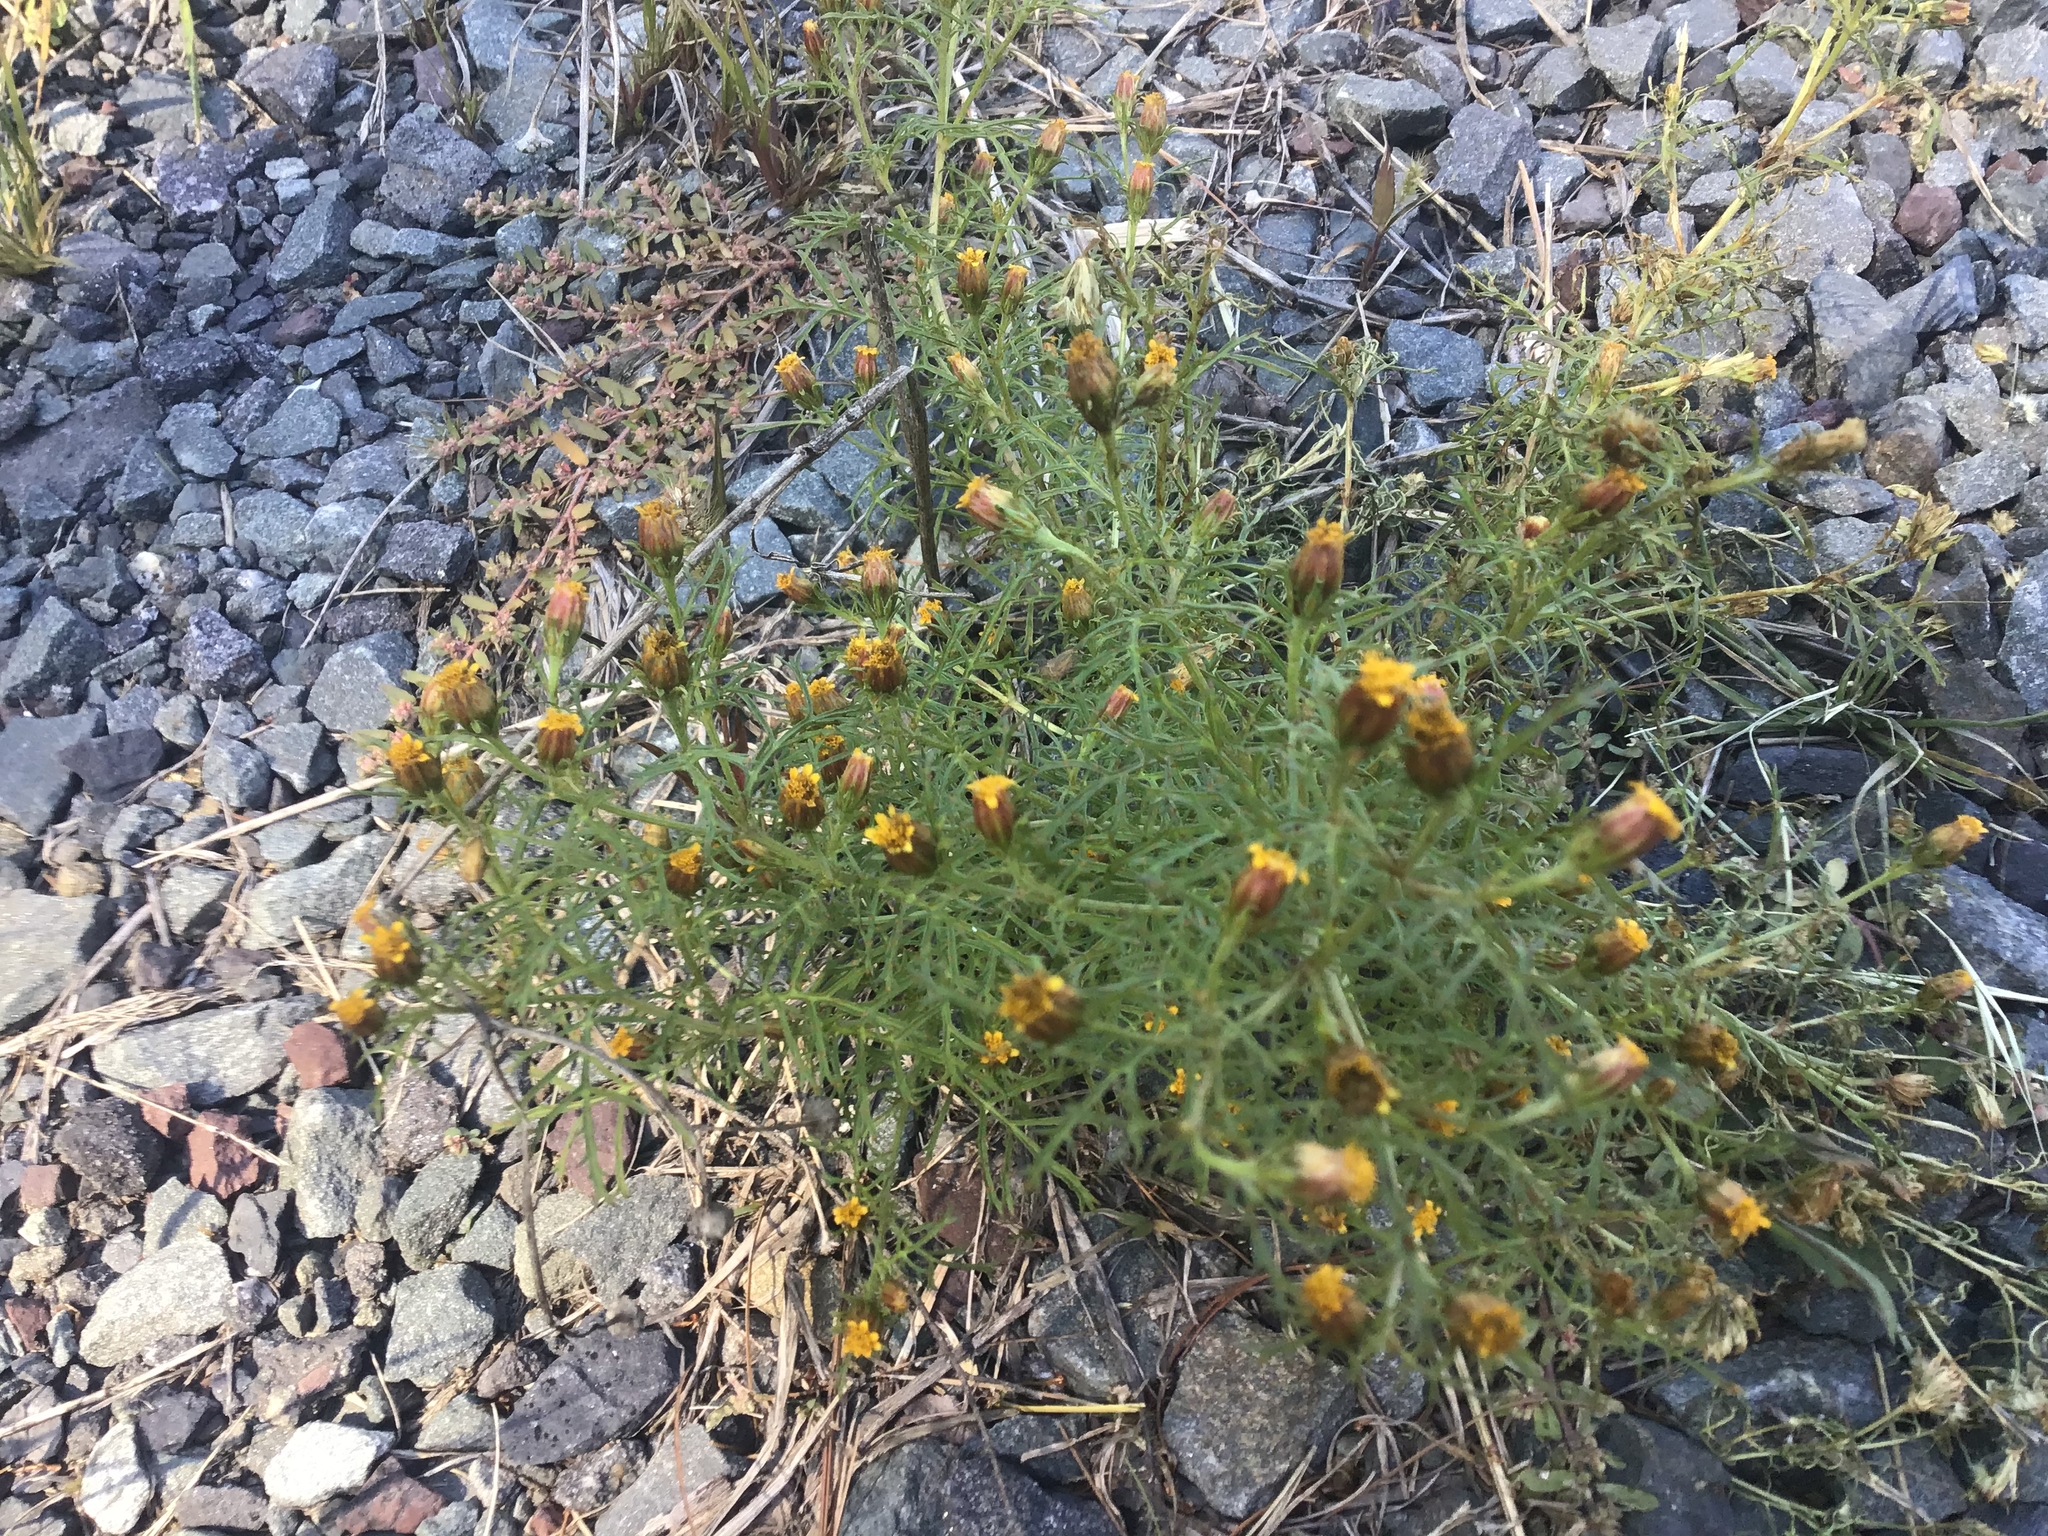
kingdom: Plantae
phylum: Tracheophyta
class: Magnoliopsida
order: Asterales
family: Asteraceae
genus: Dyssodia
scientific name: Dyssodia papposa
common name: Dogweed
